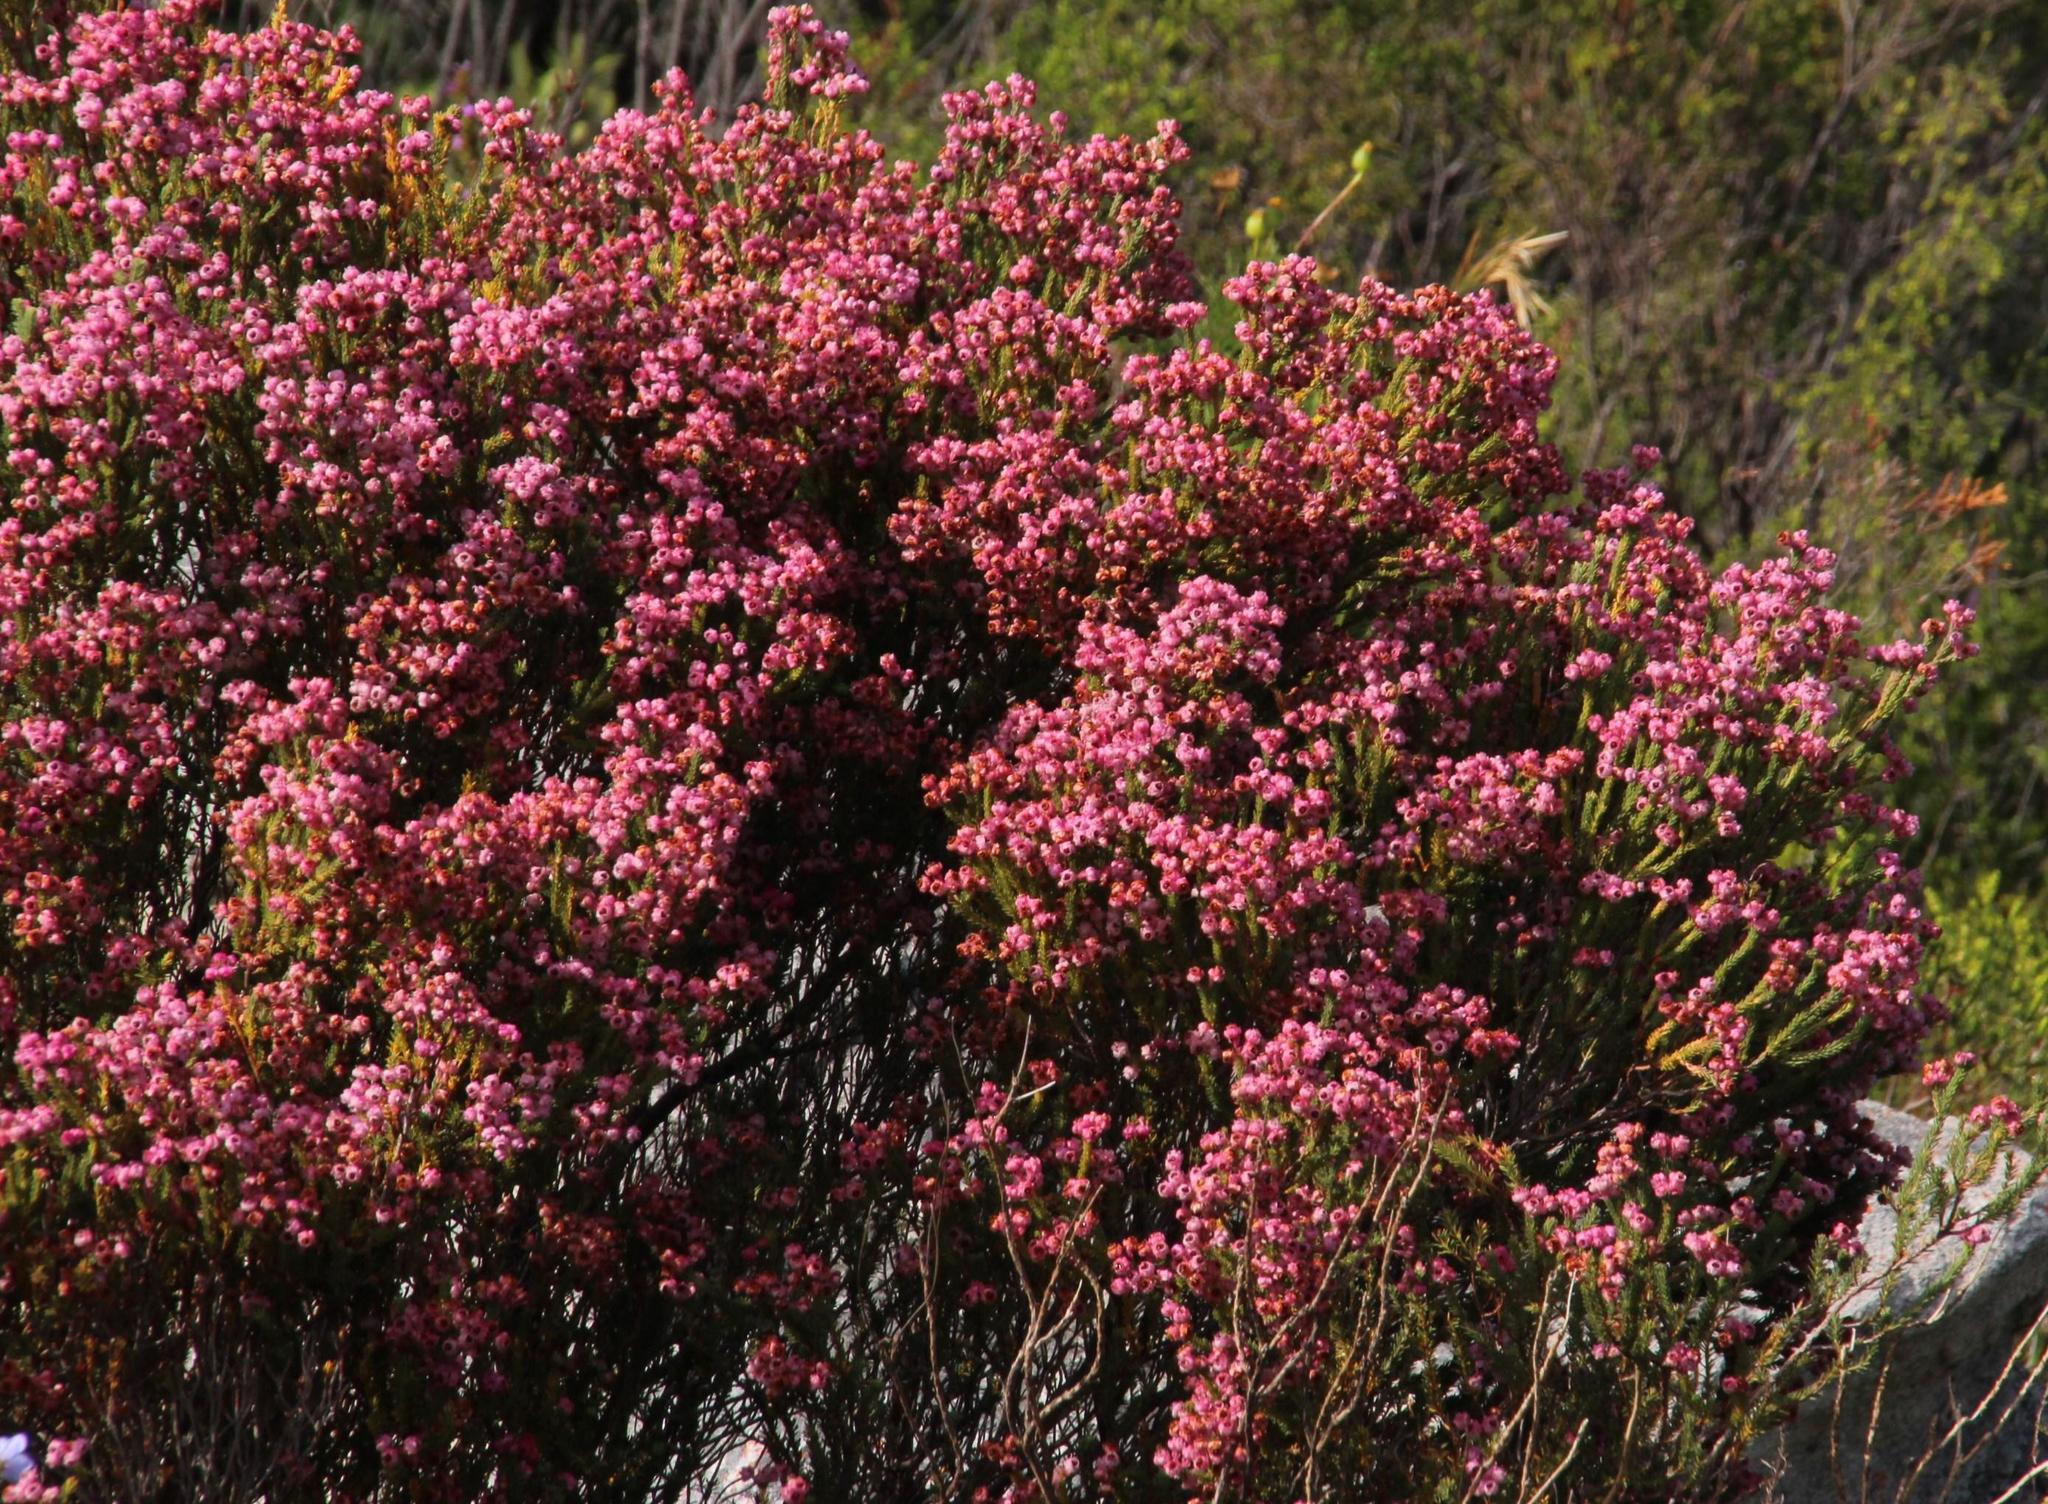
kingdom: Plantae
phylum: Tracheophyta
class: Magnoliopsida
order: Ericales
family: Ericaceae
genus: Erica
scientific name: Erica baccans
